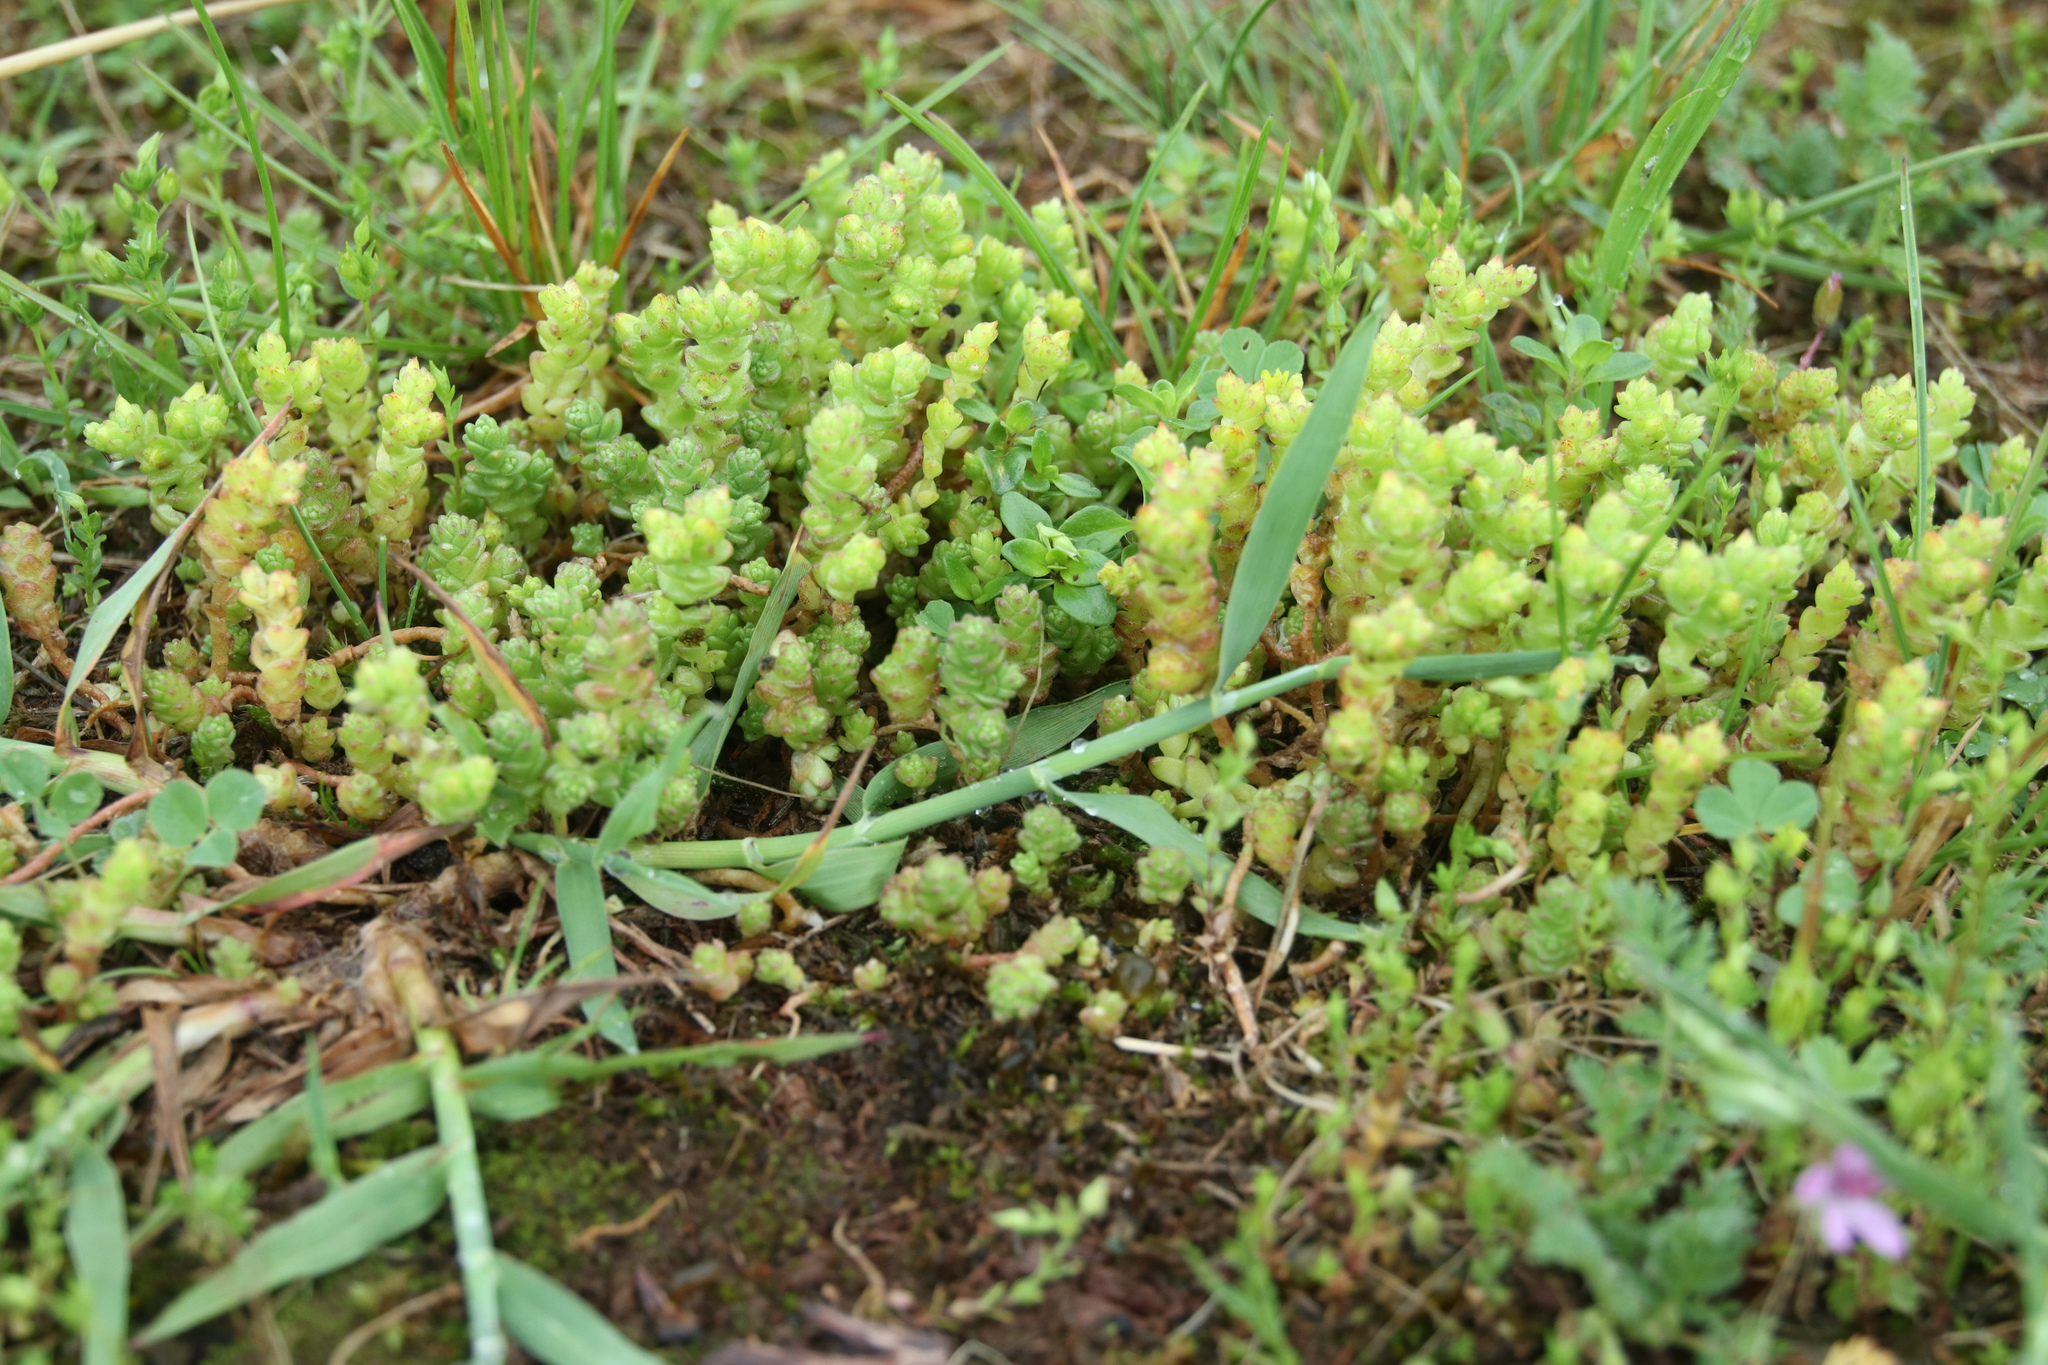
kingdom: Plantae
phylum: Tracheophyta
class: Magnoliopsida
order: Saxifragales
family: Crassulaceae
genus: Sedum
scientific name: Sedum acre
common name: Biting stonecrop
